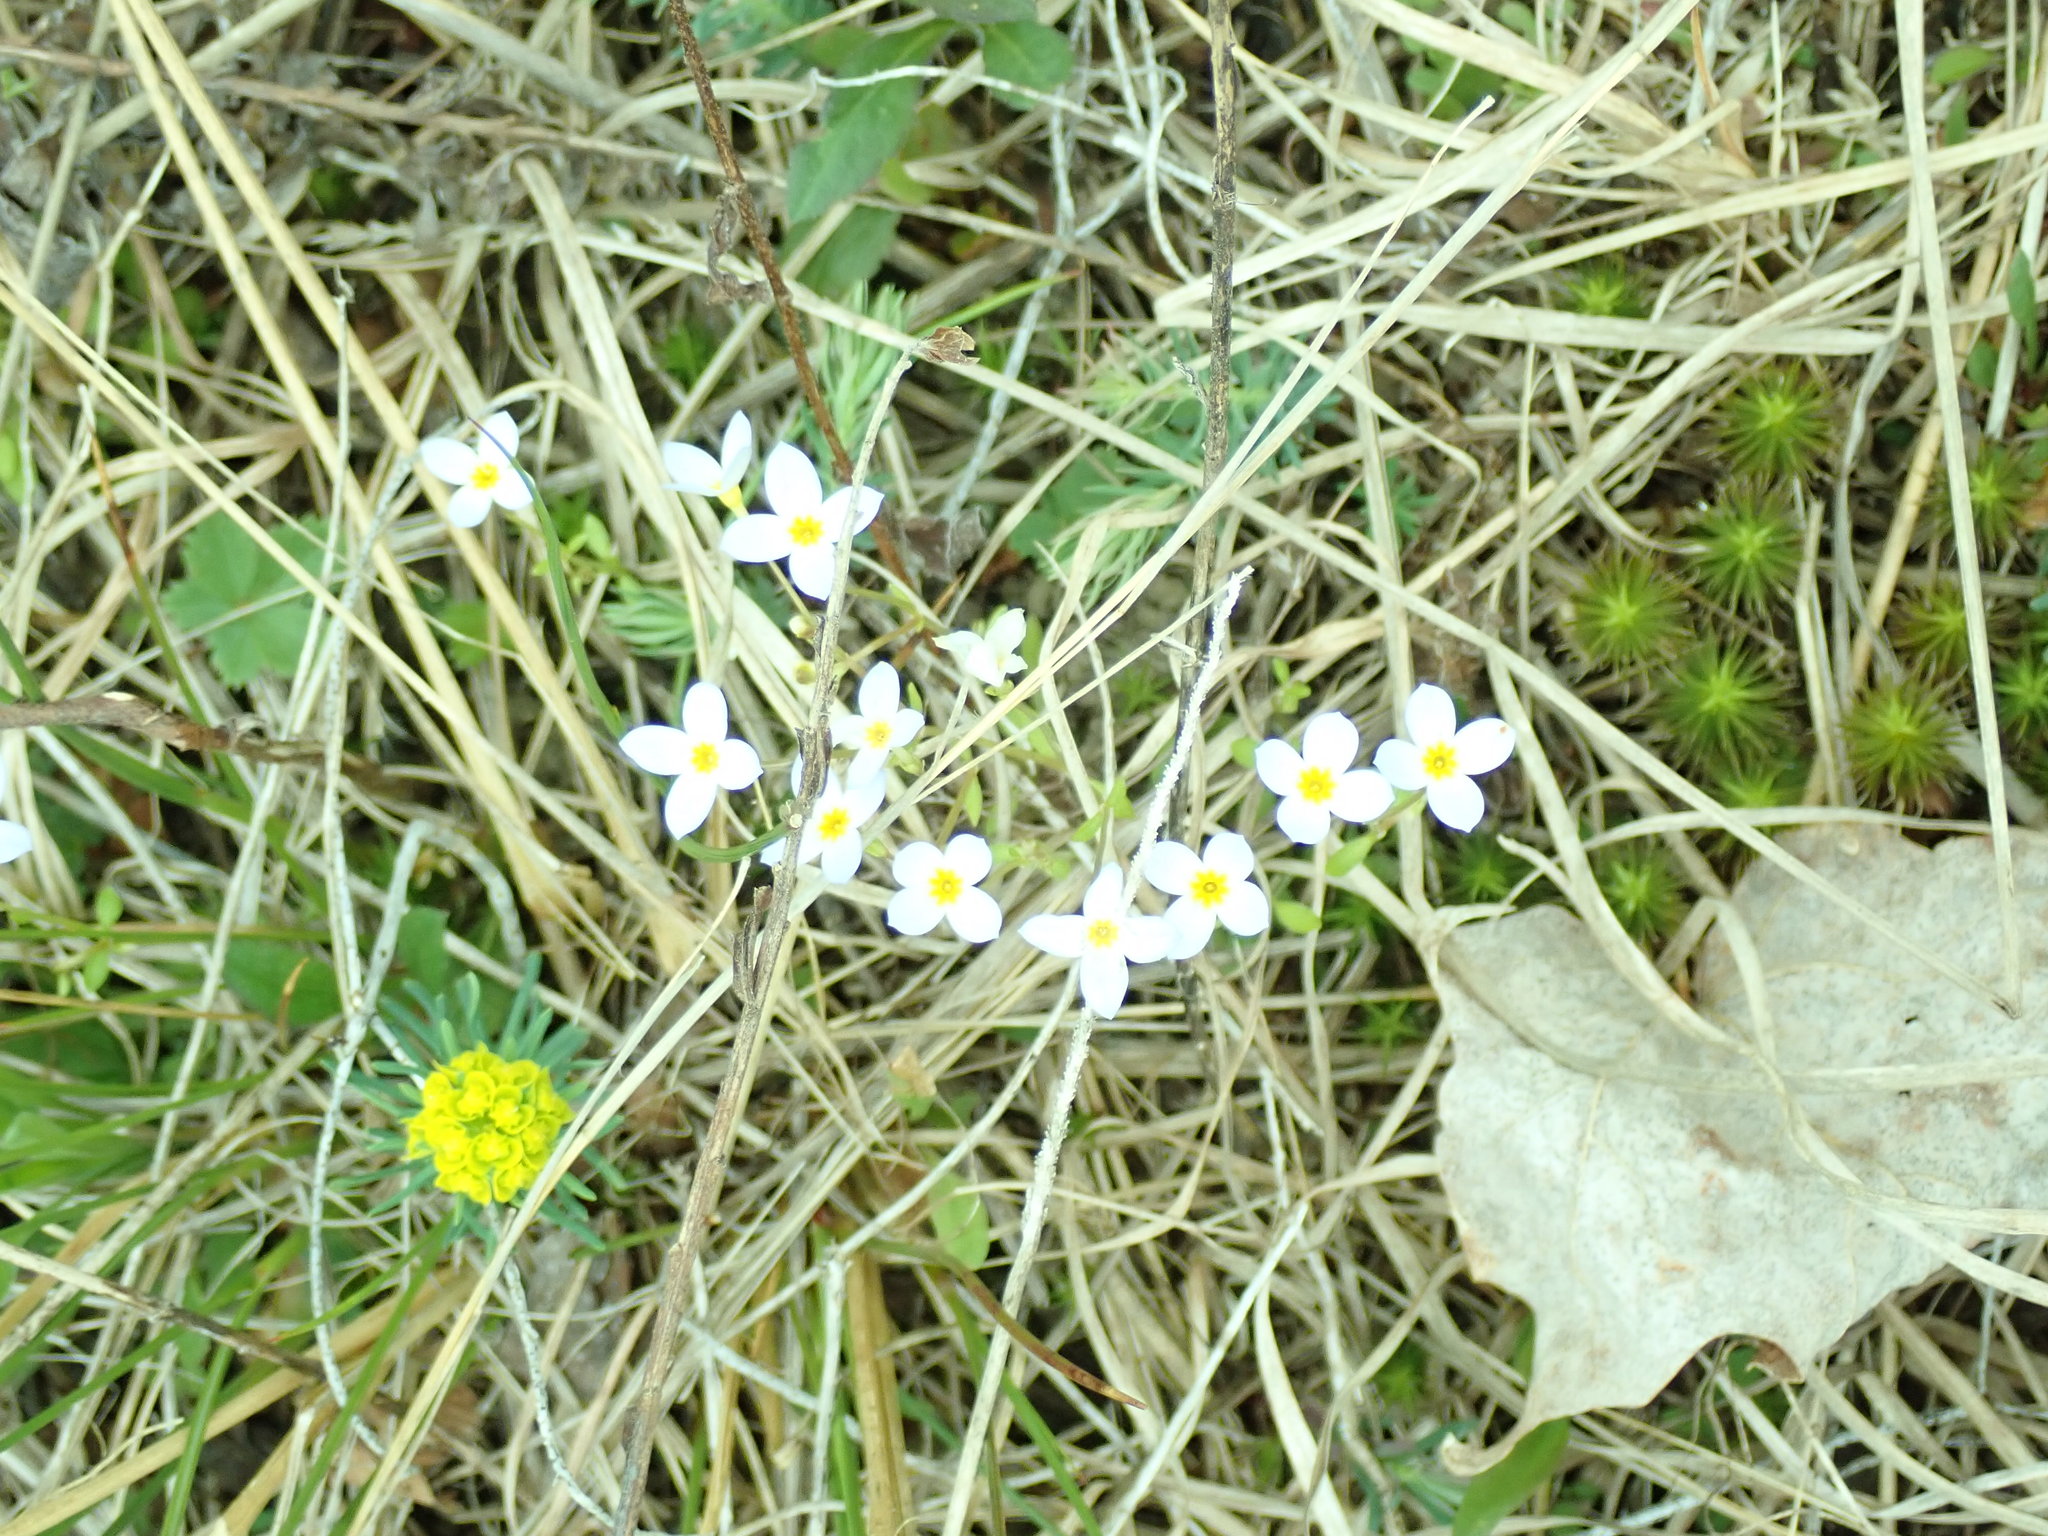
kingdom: Plantae
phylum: Tracheophyta
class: Magnoliopsida
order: Gentianales
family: Rubiaceae
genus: Houstonia
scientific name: Houstonia caerulea
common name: Bluets
